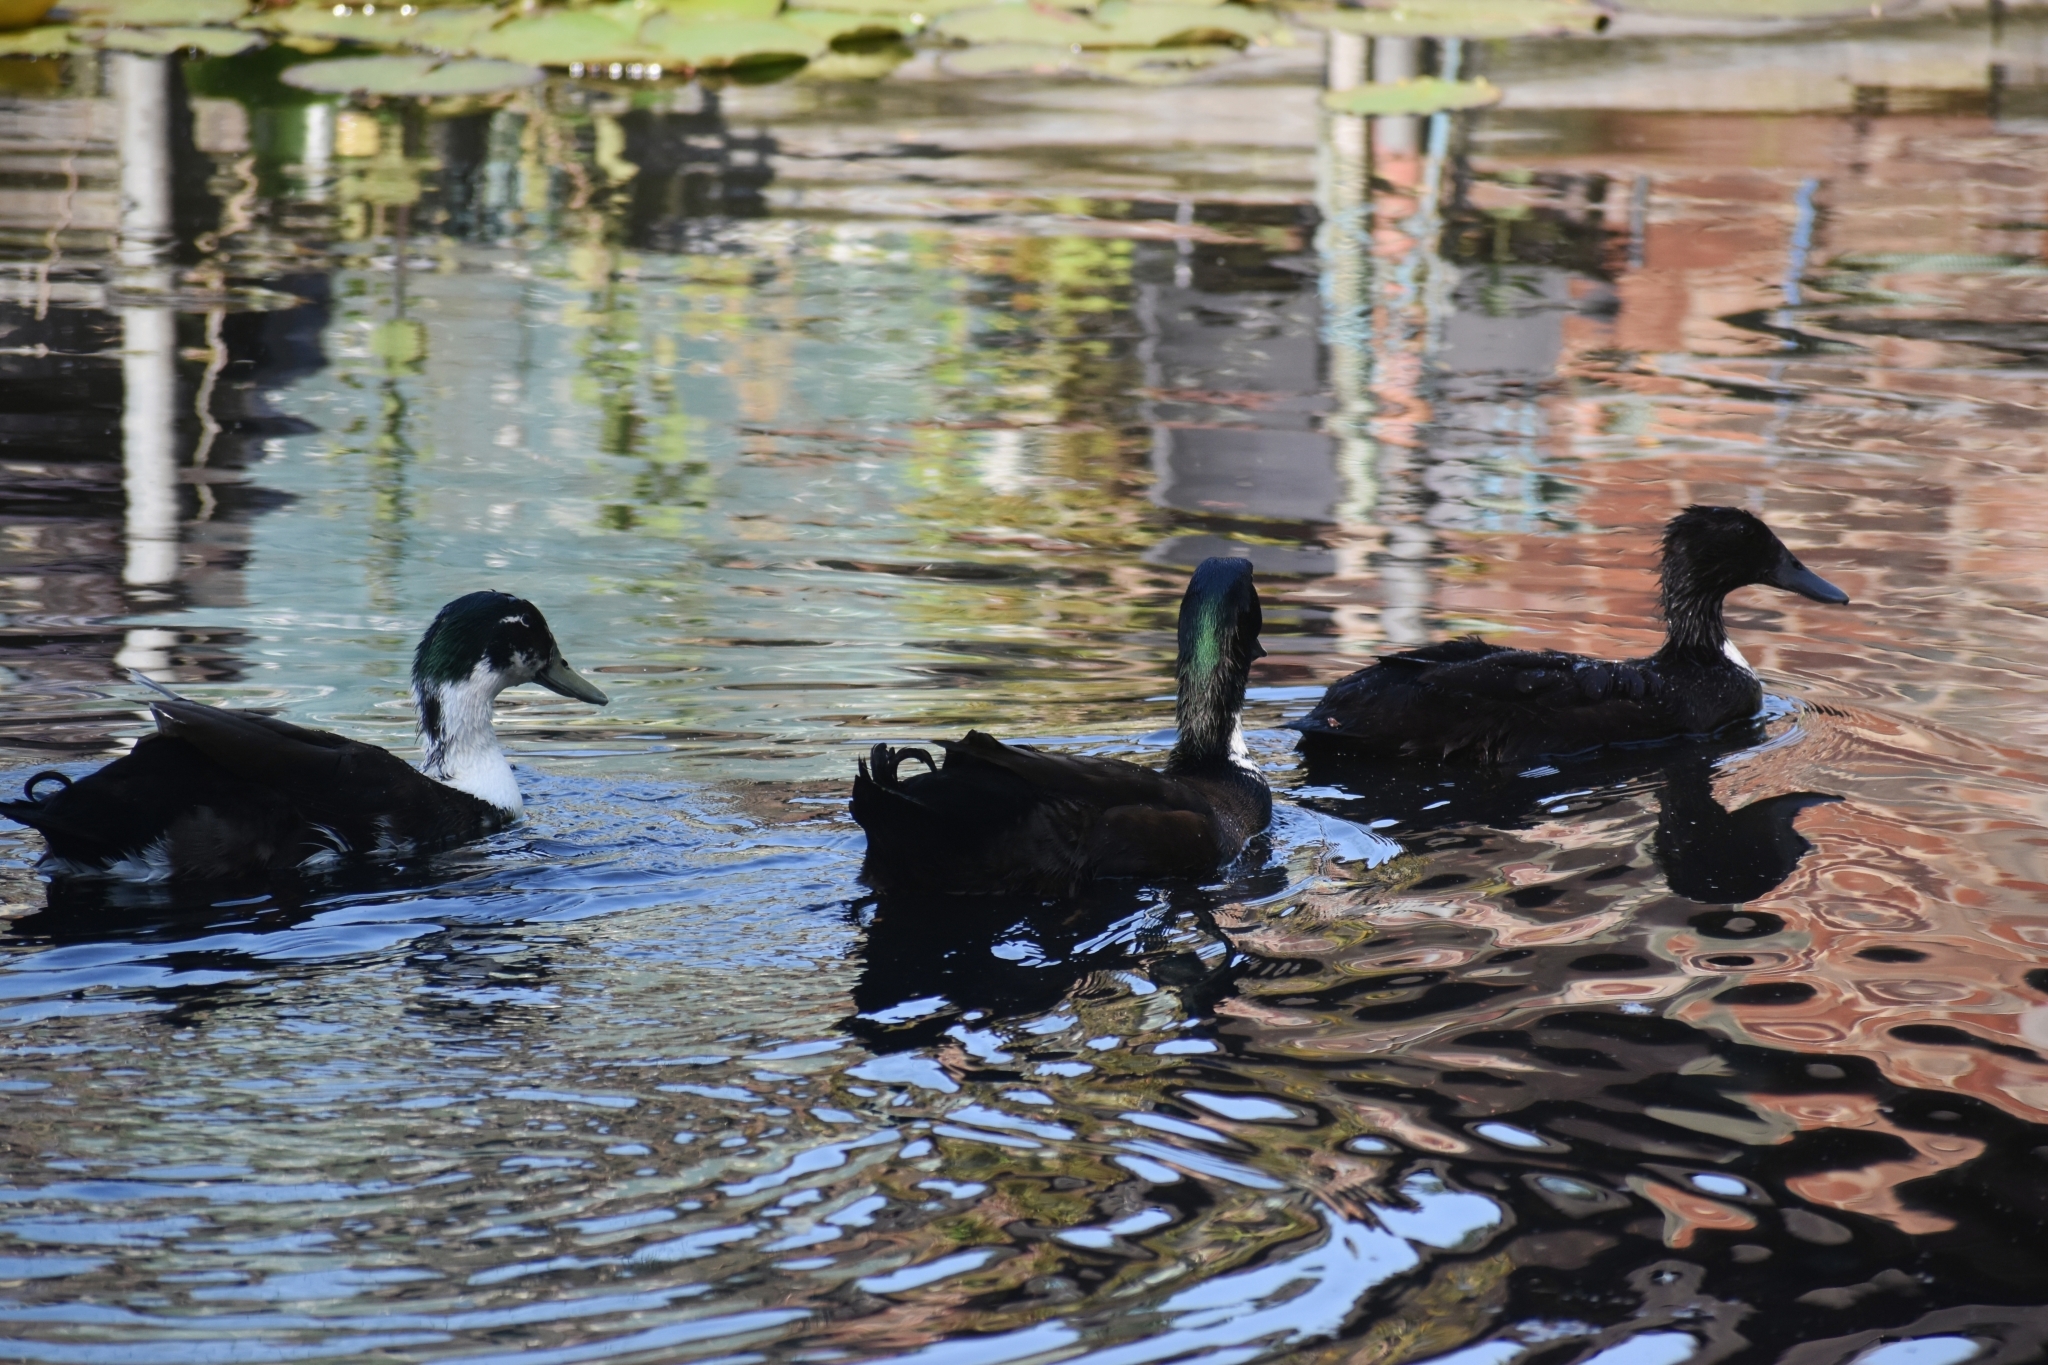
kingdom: Animalia
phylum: Chordata
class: Aves
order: Anseriformes
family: Anatidae
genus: Anas
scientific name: Anas platyrhynchos
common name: Mallard
